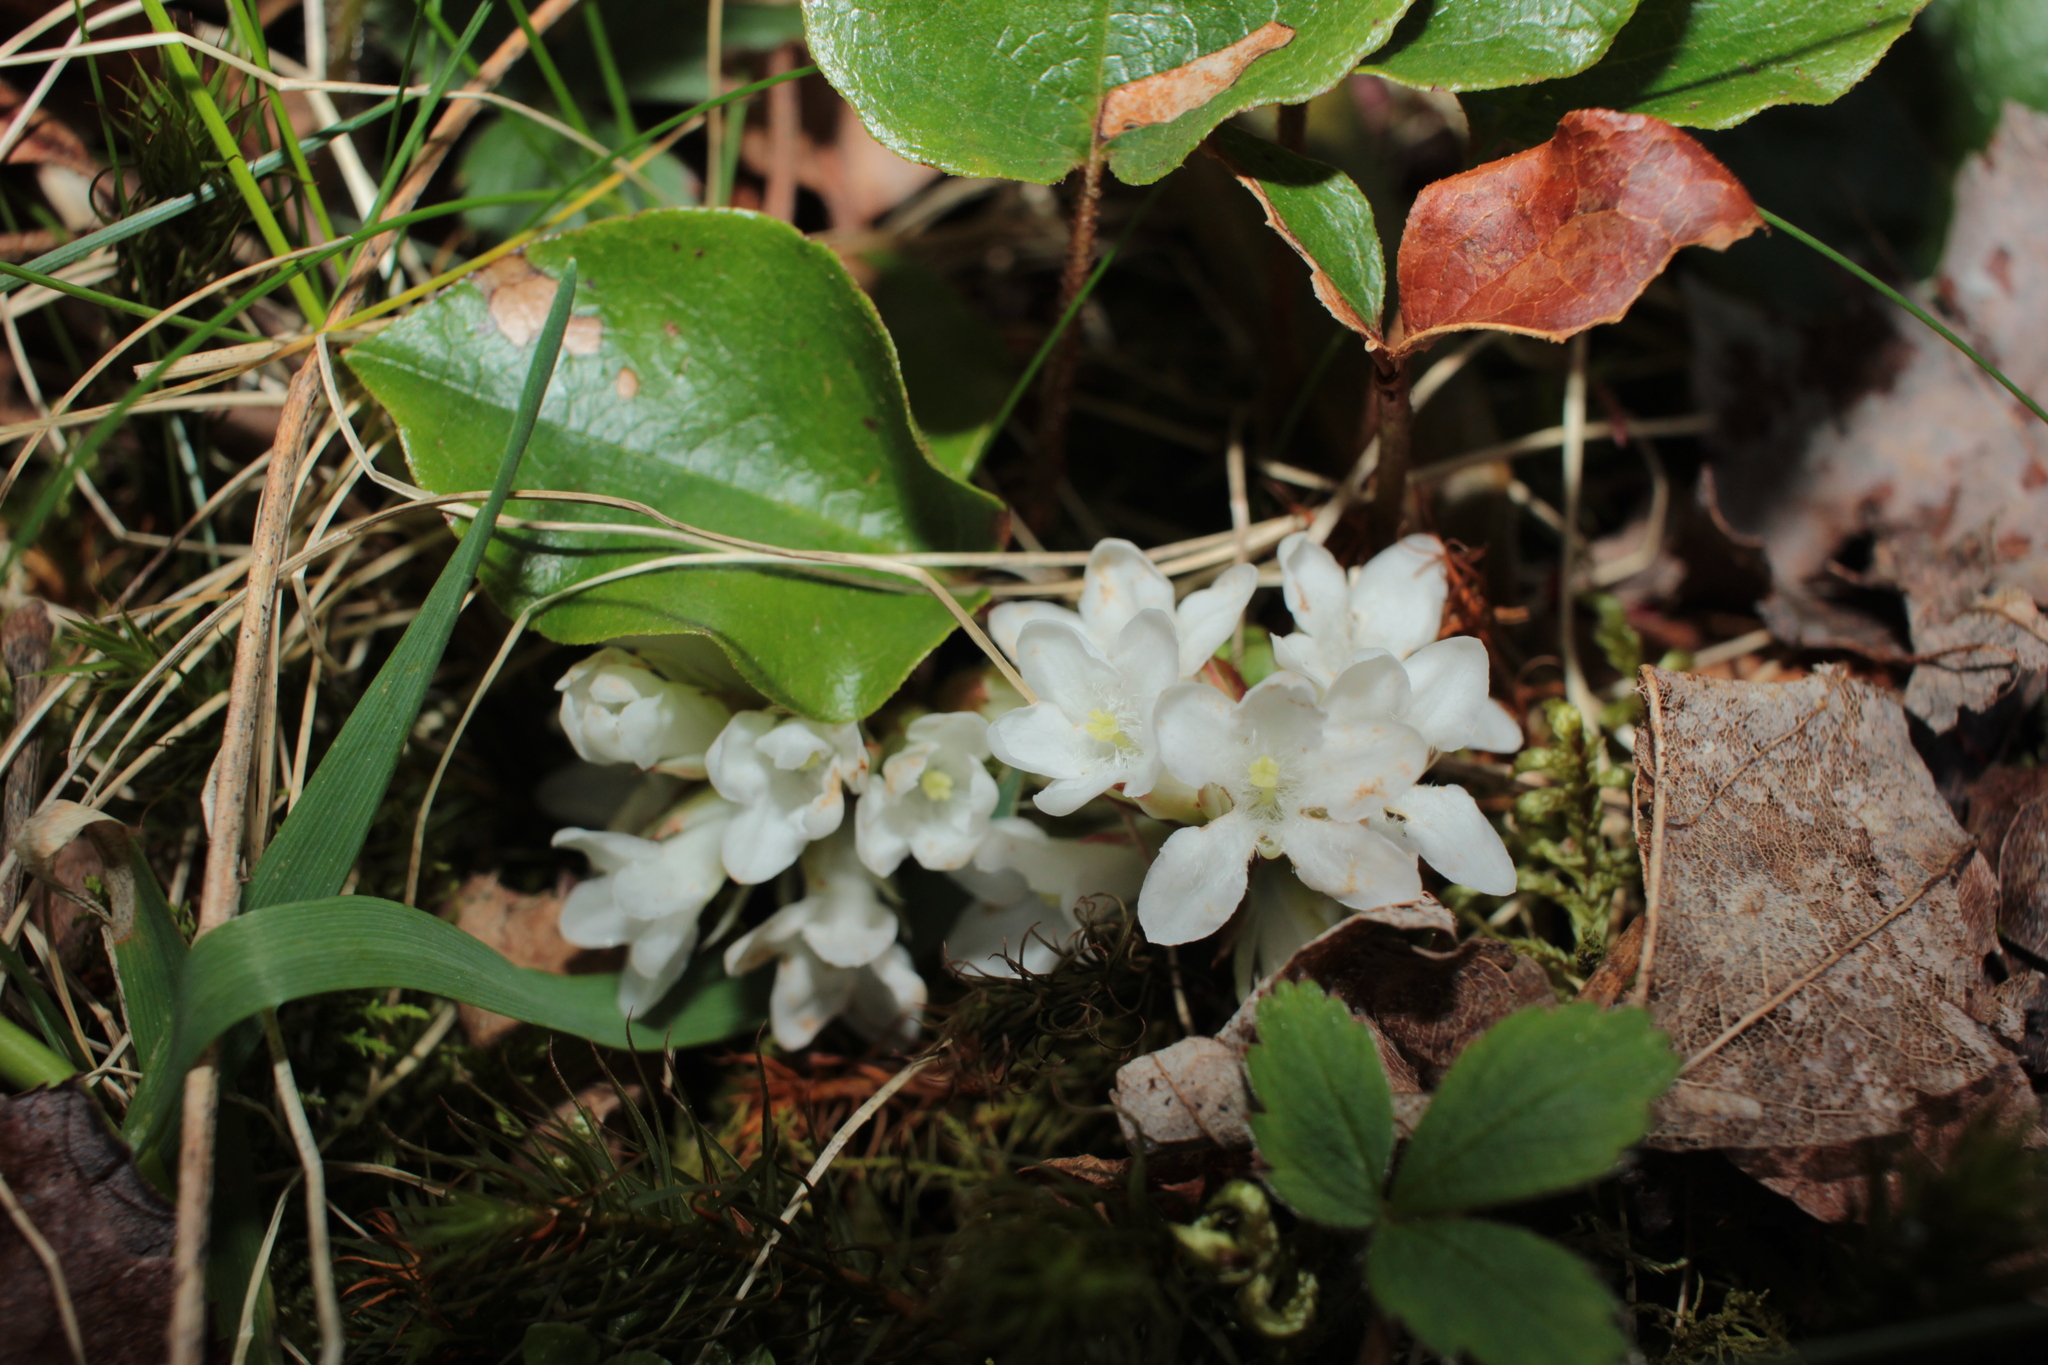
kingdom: Plantae
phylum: Tracheophyta
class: Magnoliopsida
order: Ericales
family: Ericaceae
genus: Epigaea
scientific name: Epigaea repens
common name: Gravelroot
